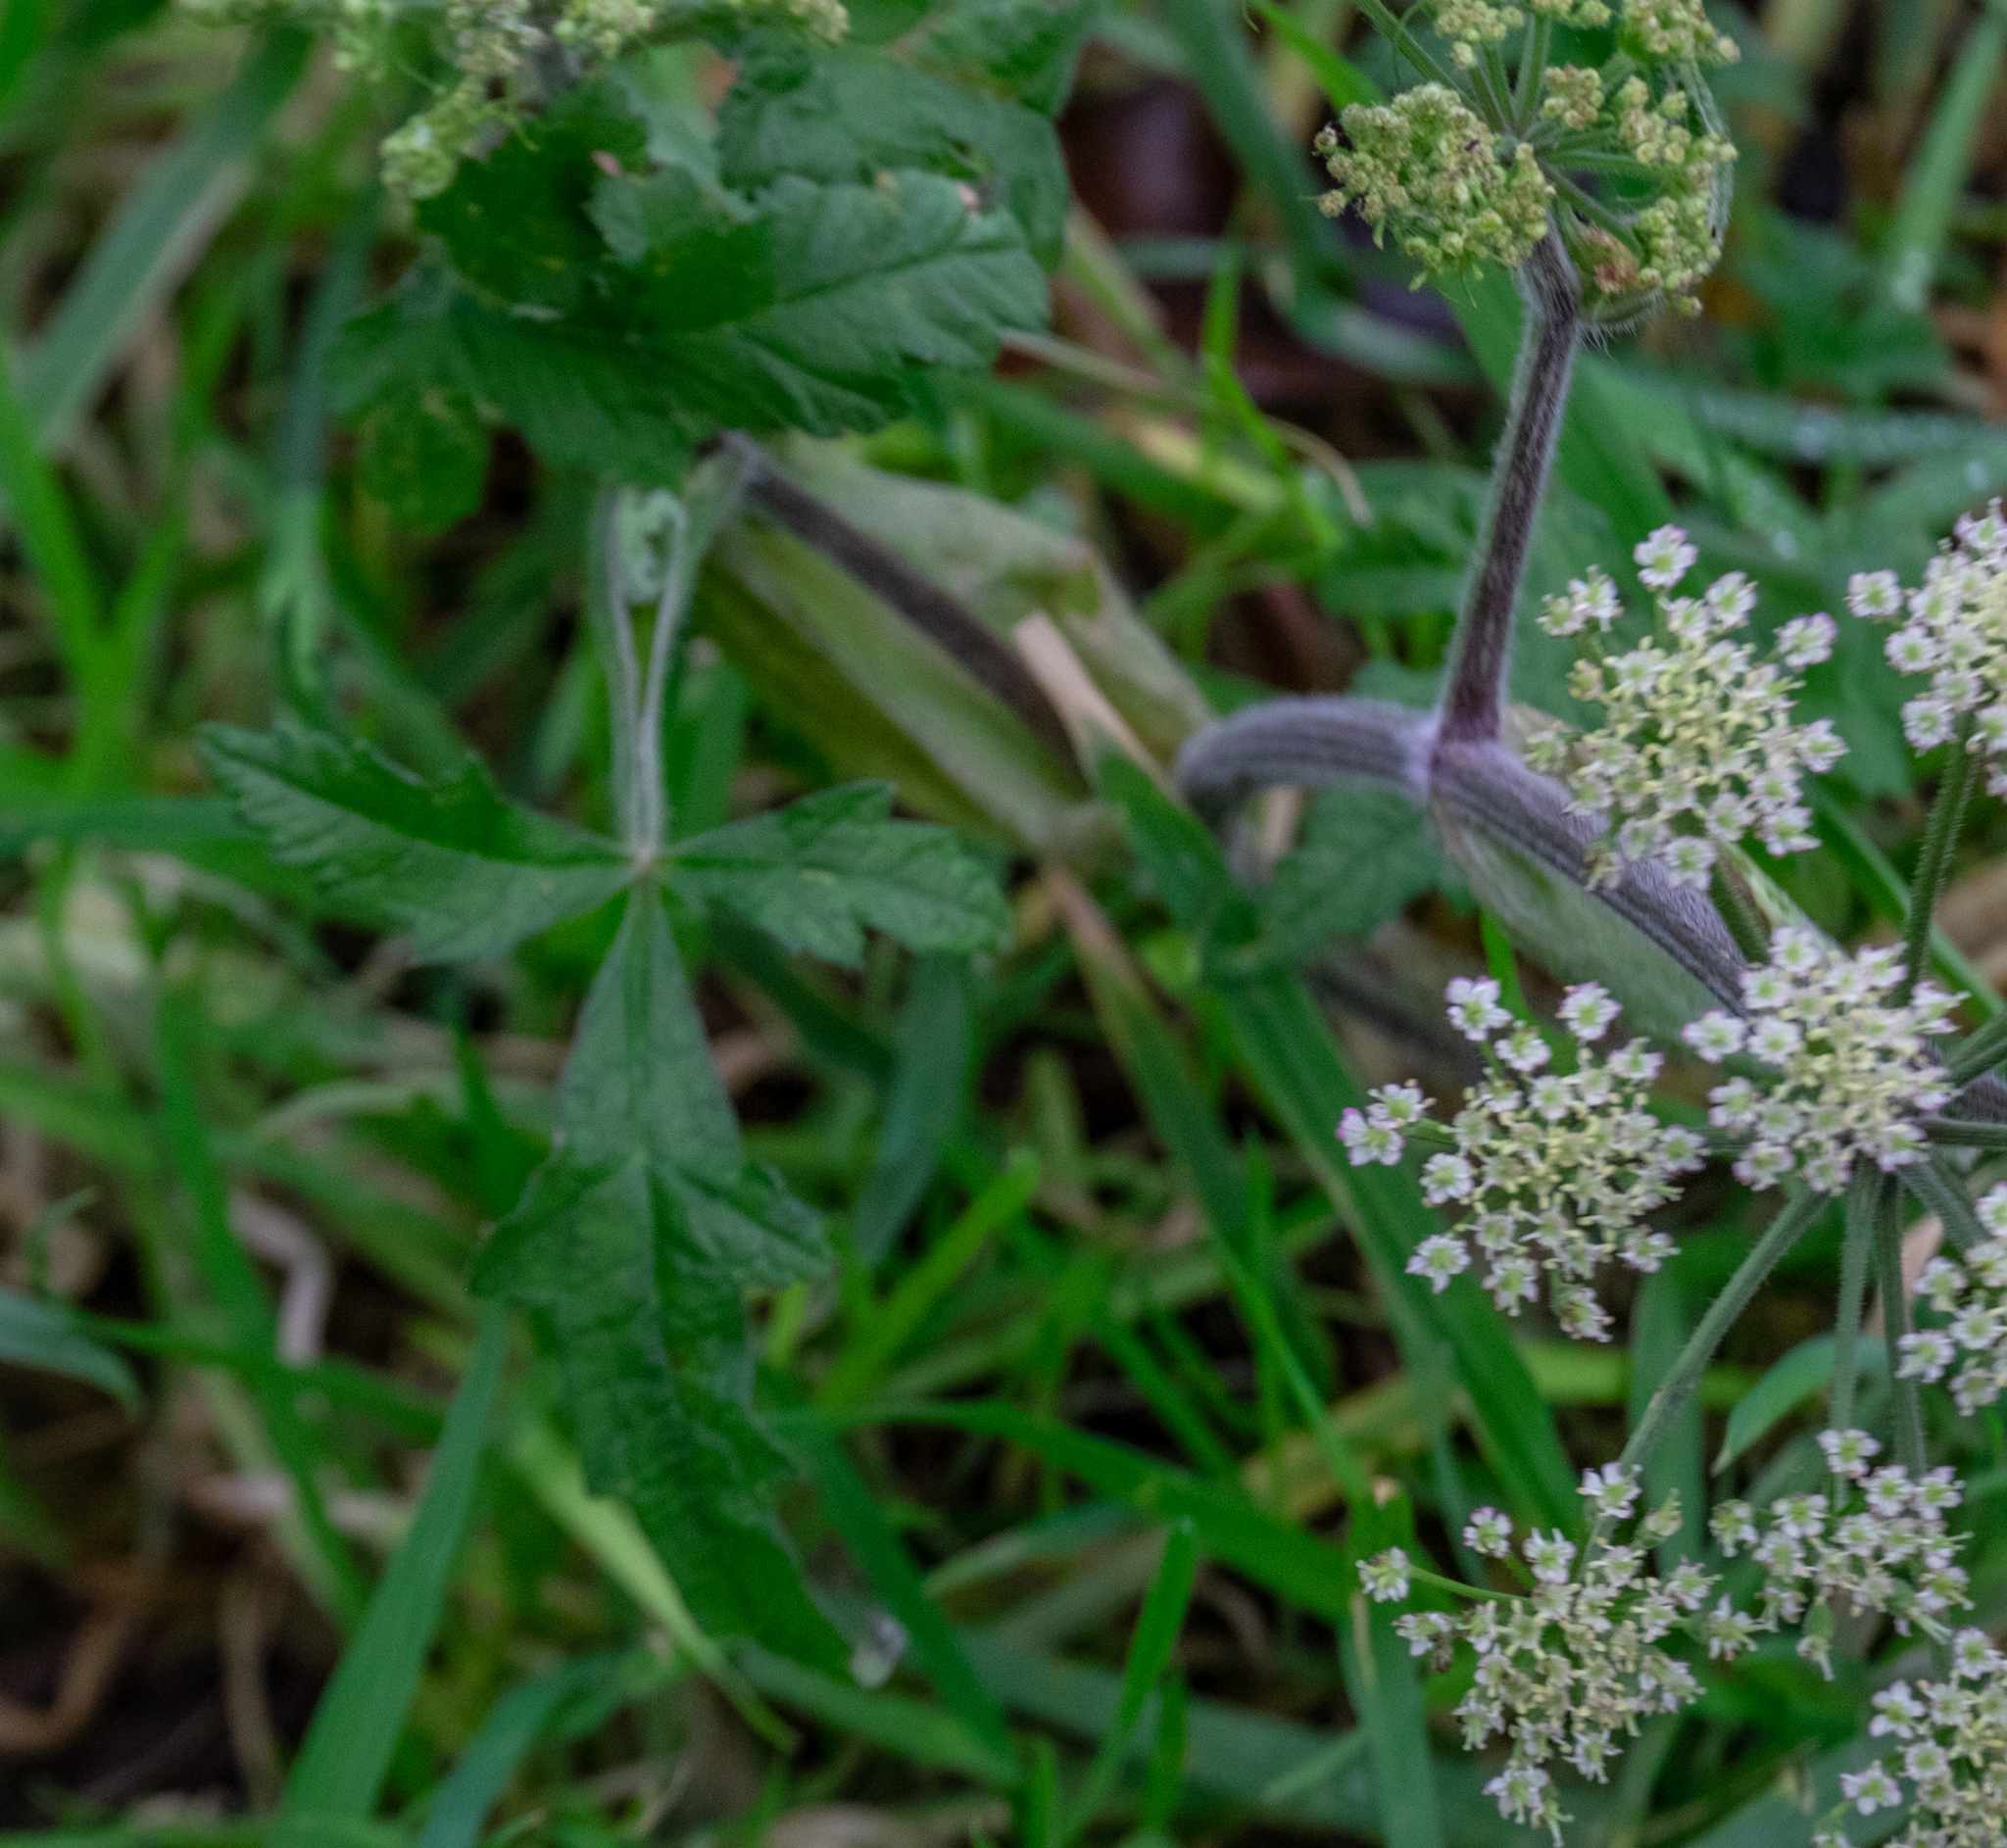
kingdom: Plantae
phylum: Tracheophyta
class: Magnoliopsida
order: Apiales
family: Apiaceae
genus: Heracleum
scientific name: Heracleum sphondylium
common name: Hogweed
